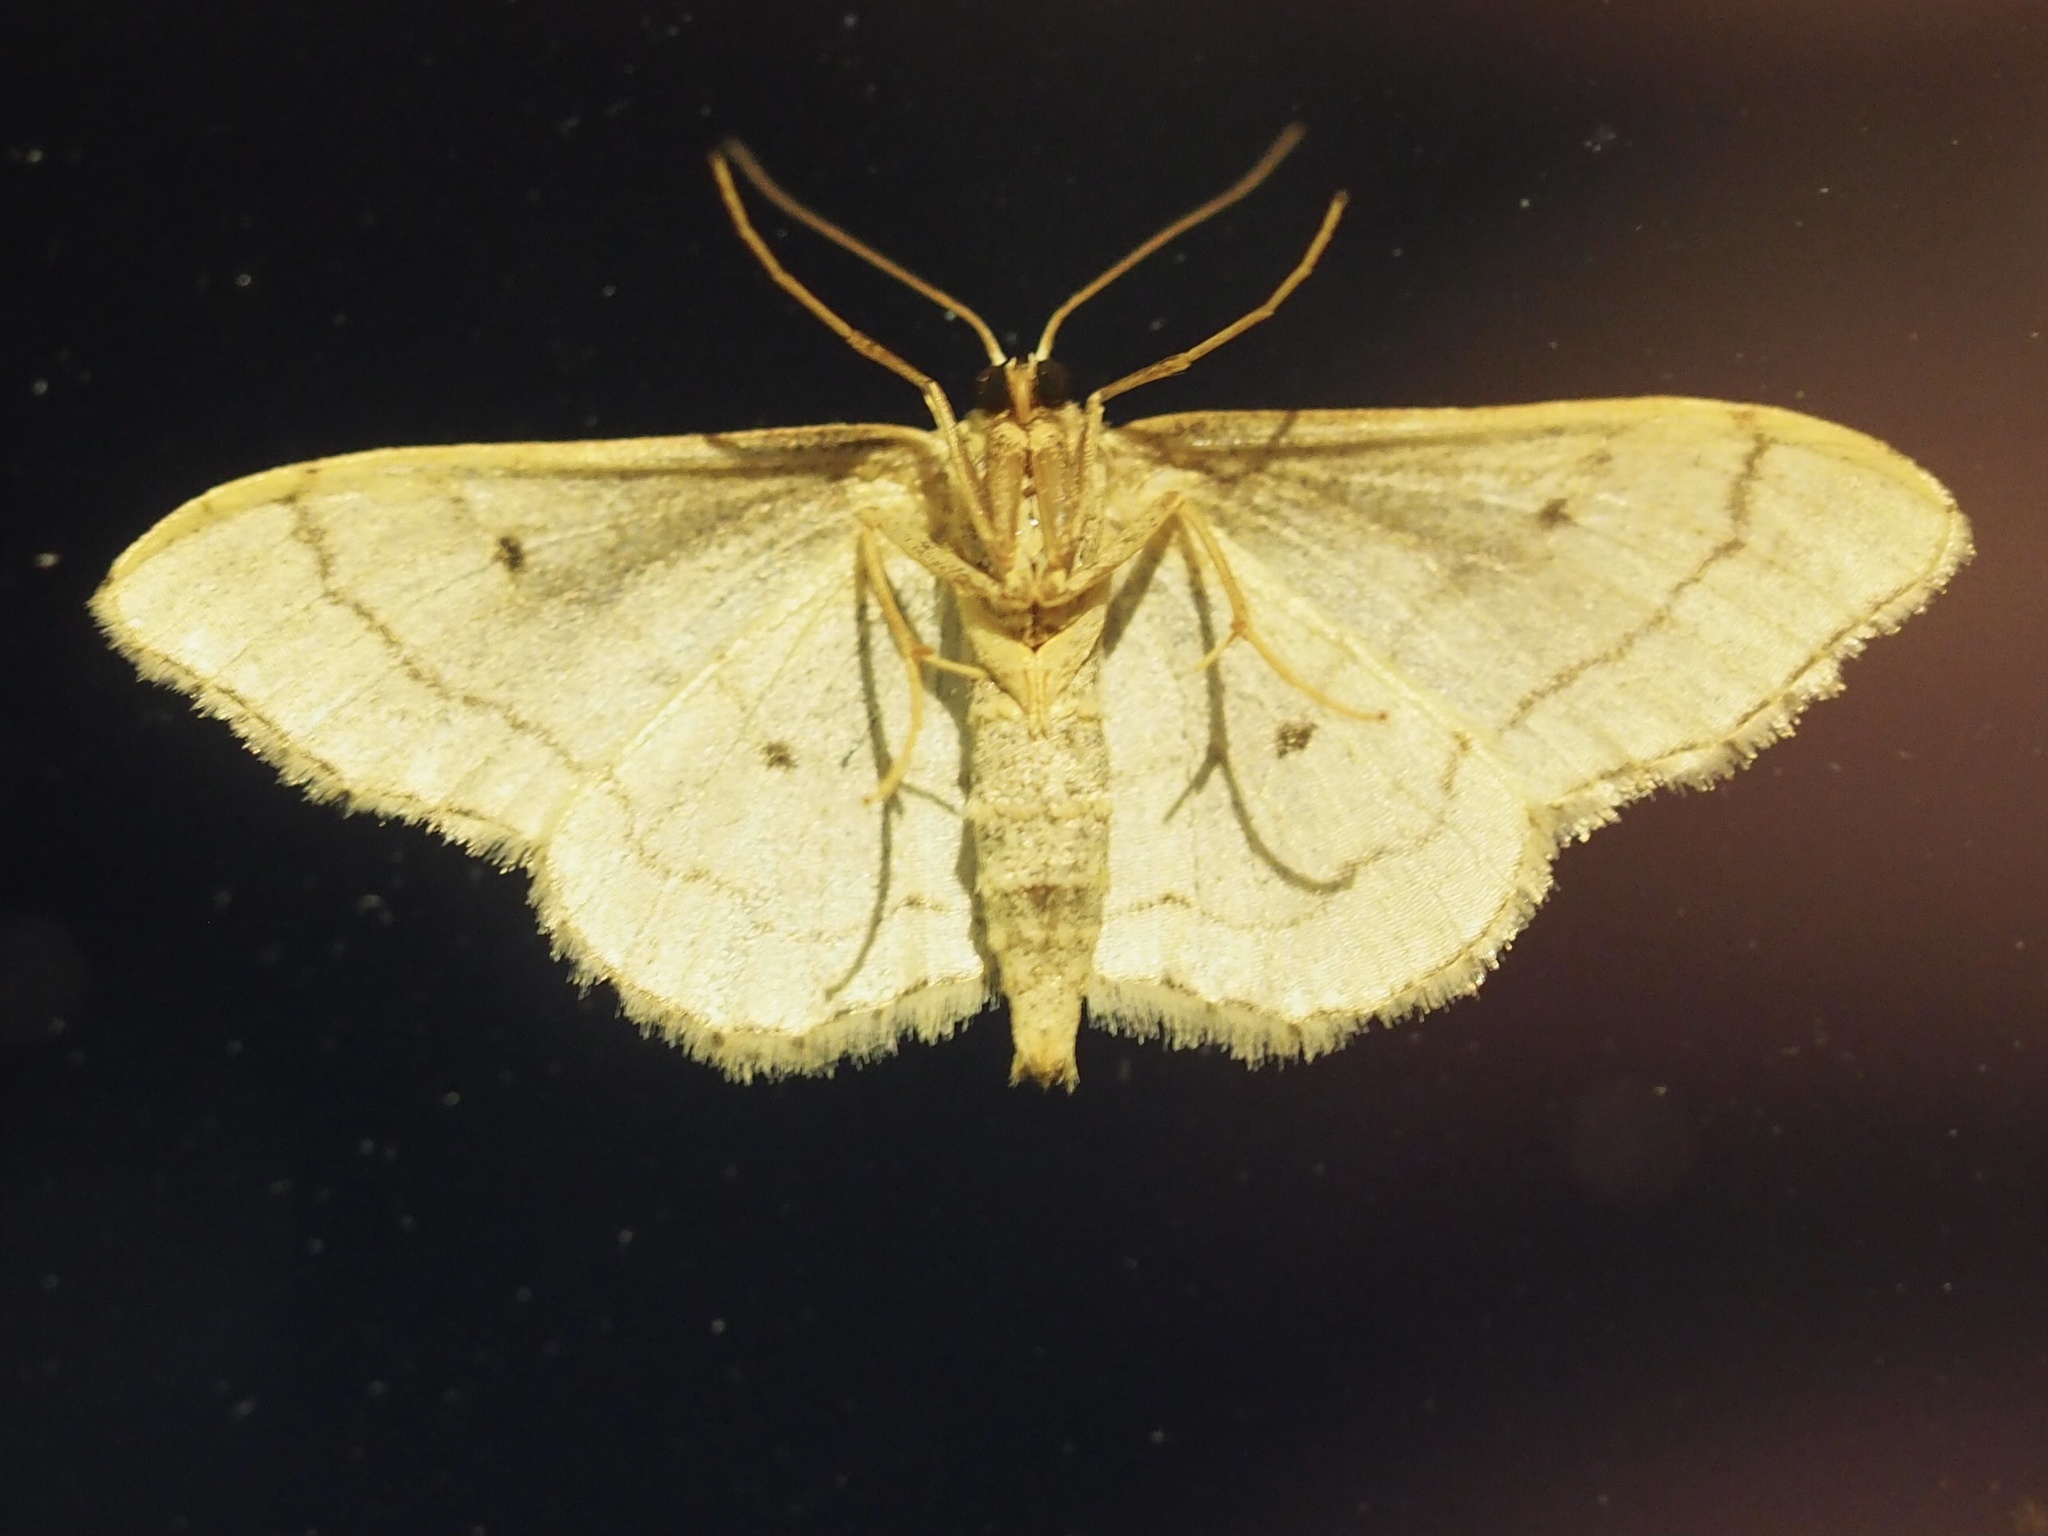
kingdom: Animalia
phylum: Arthropoda
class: Insecta
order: Lepidoptera
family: Geometridae
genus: Idaea
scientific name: Idaea aversata
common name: Riband wave
